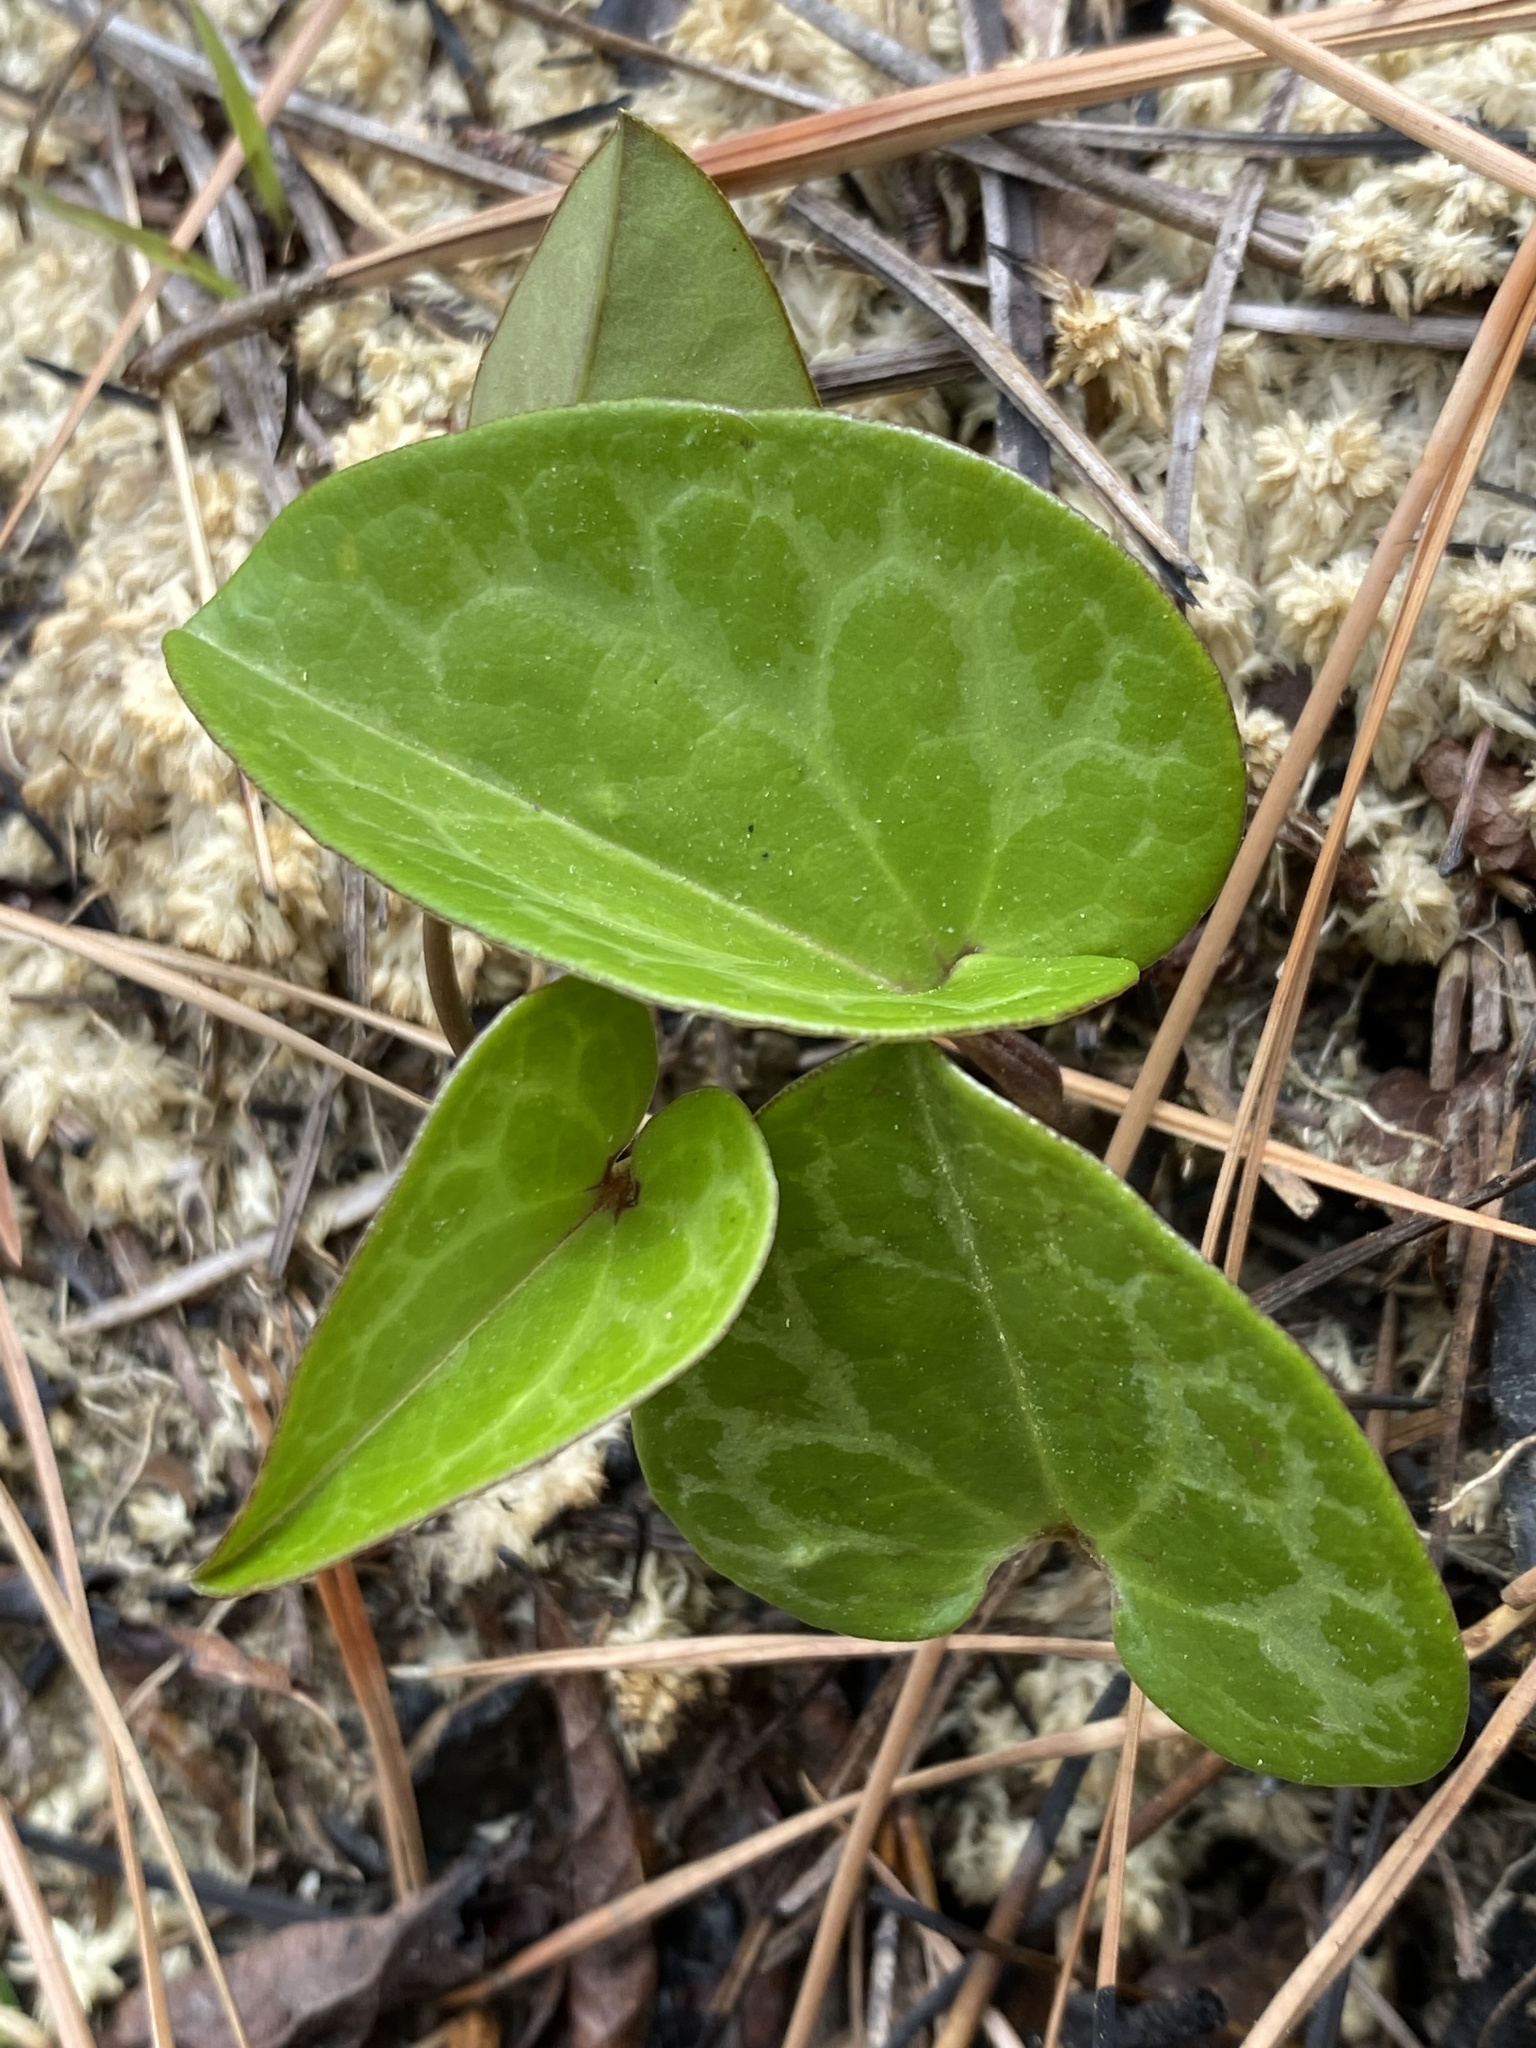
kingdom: Plantae
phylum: Tracheophyta
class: Magnoliopsida
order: Piperales
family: Aristolochiaceae
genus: Hexastylis
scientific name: Hexastylis sorriei
